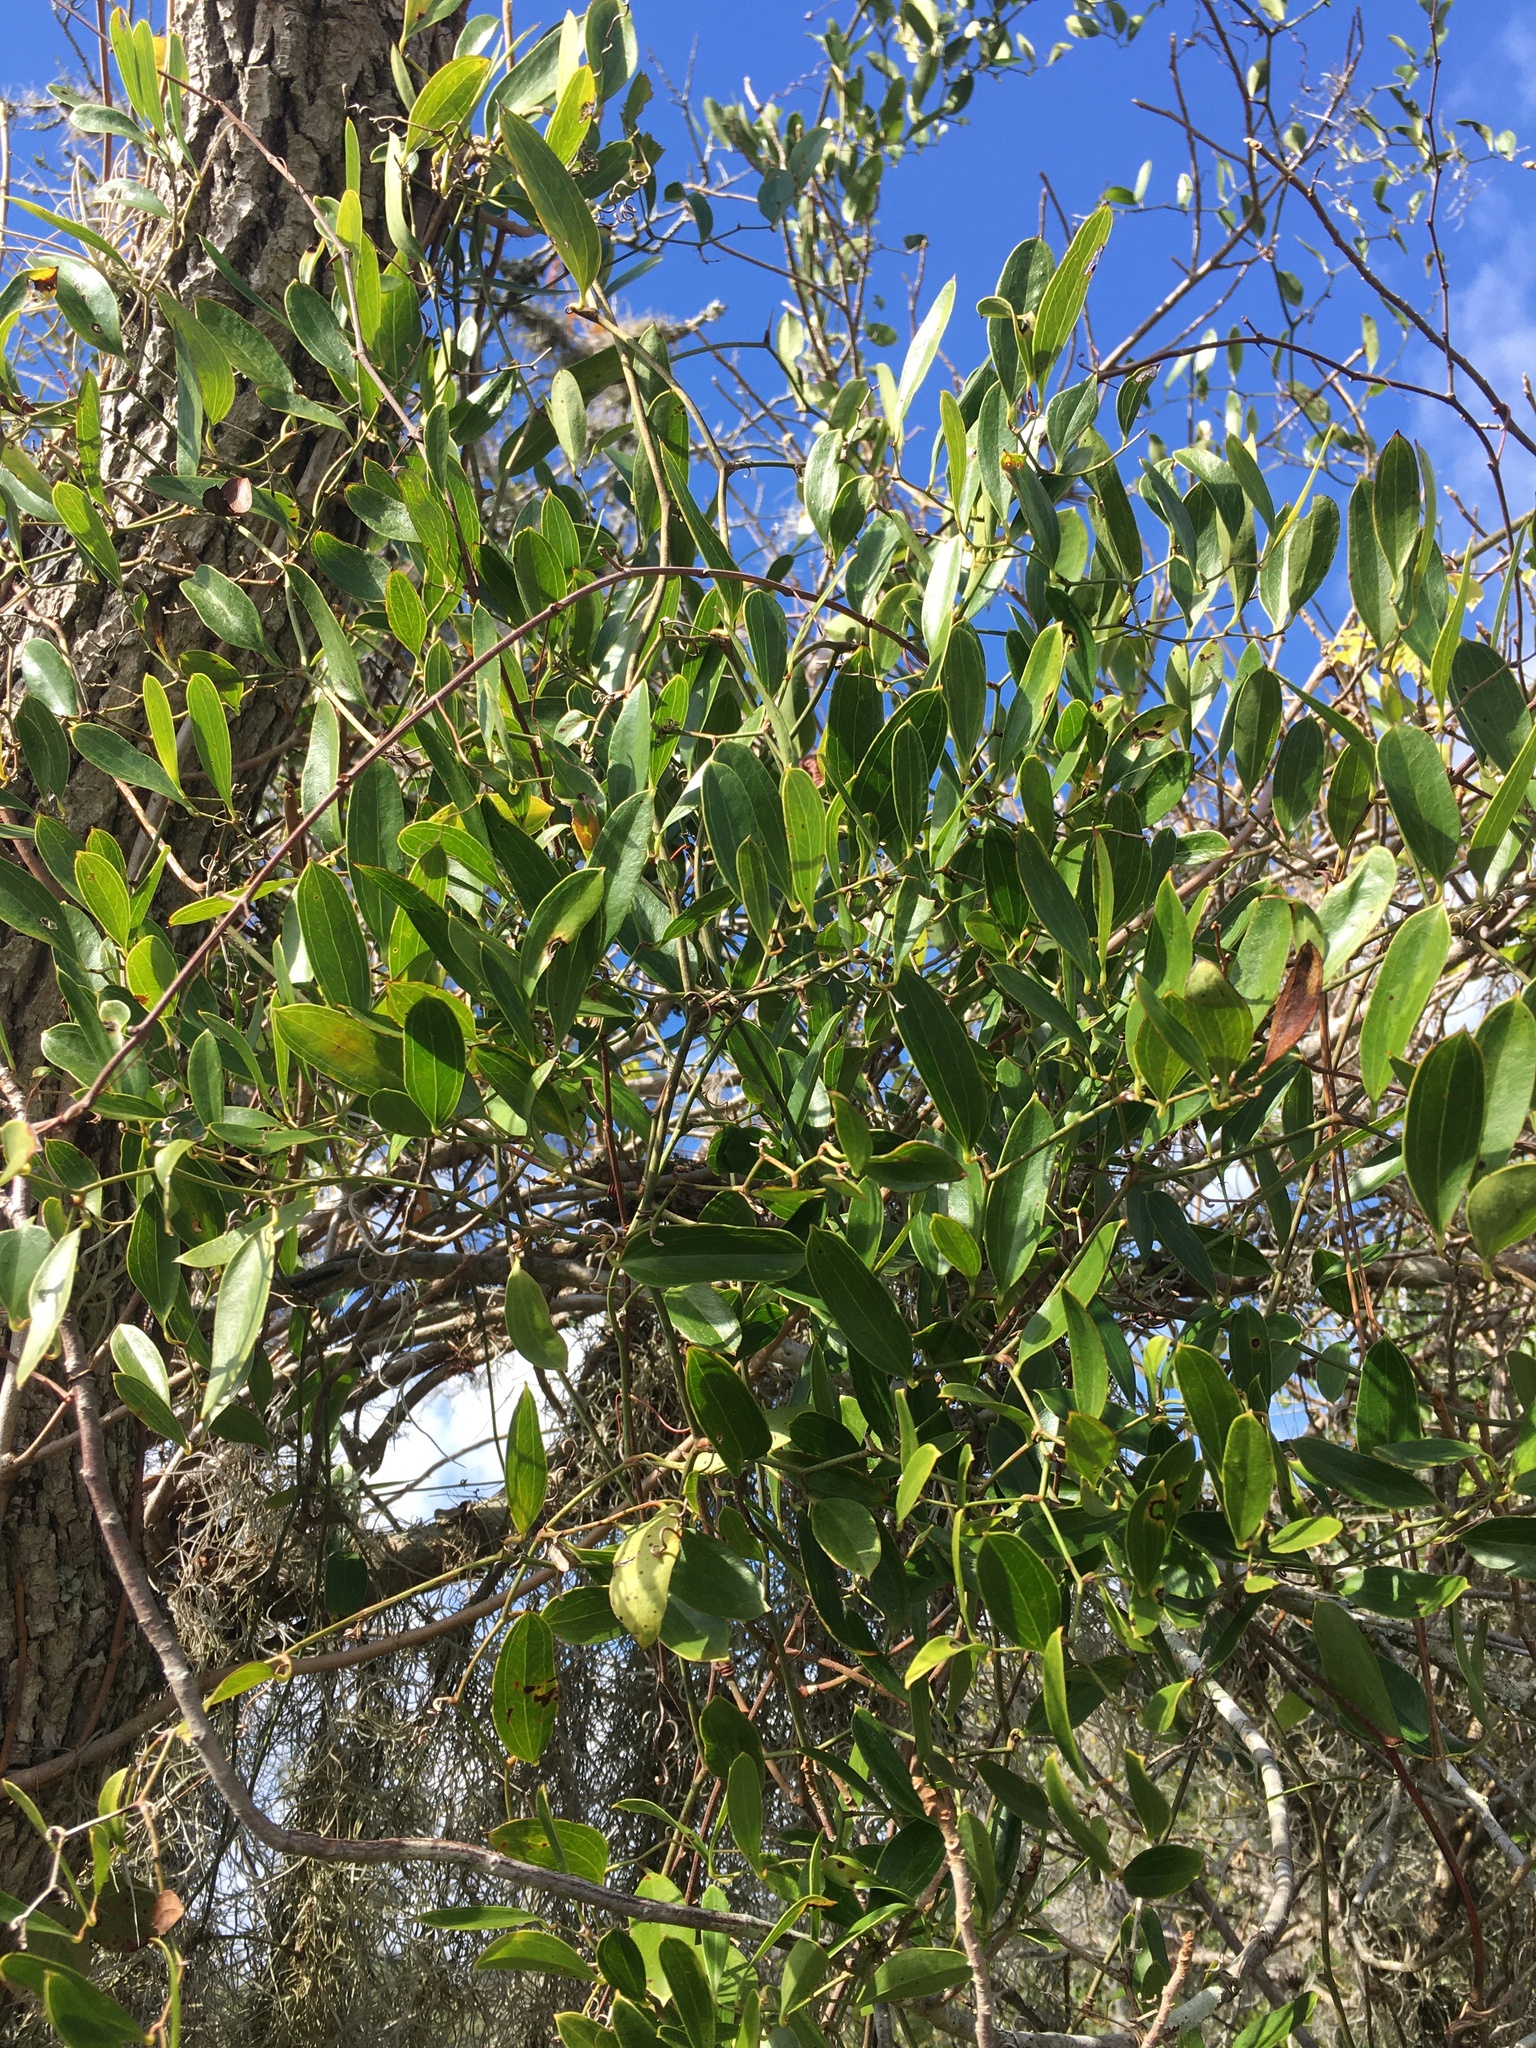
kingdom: Plantae
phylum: Tracheophyta
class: Liliopsida
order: Liliales
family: Smilacaceae
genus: Smilax
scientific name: Smilax auriculata
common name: Wild bamboo
